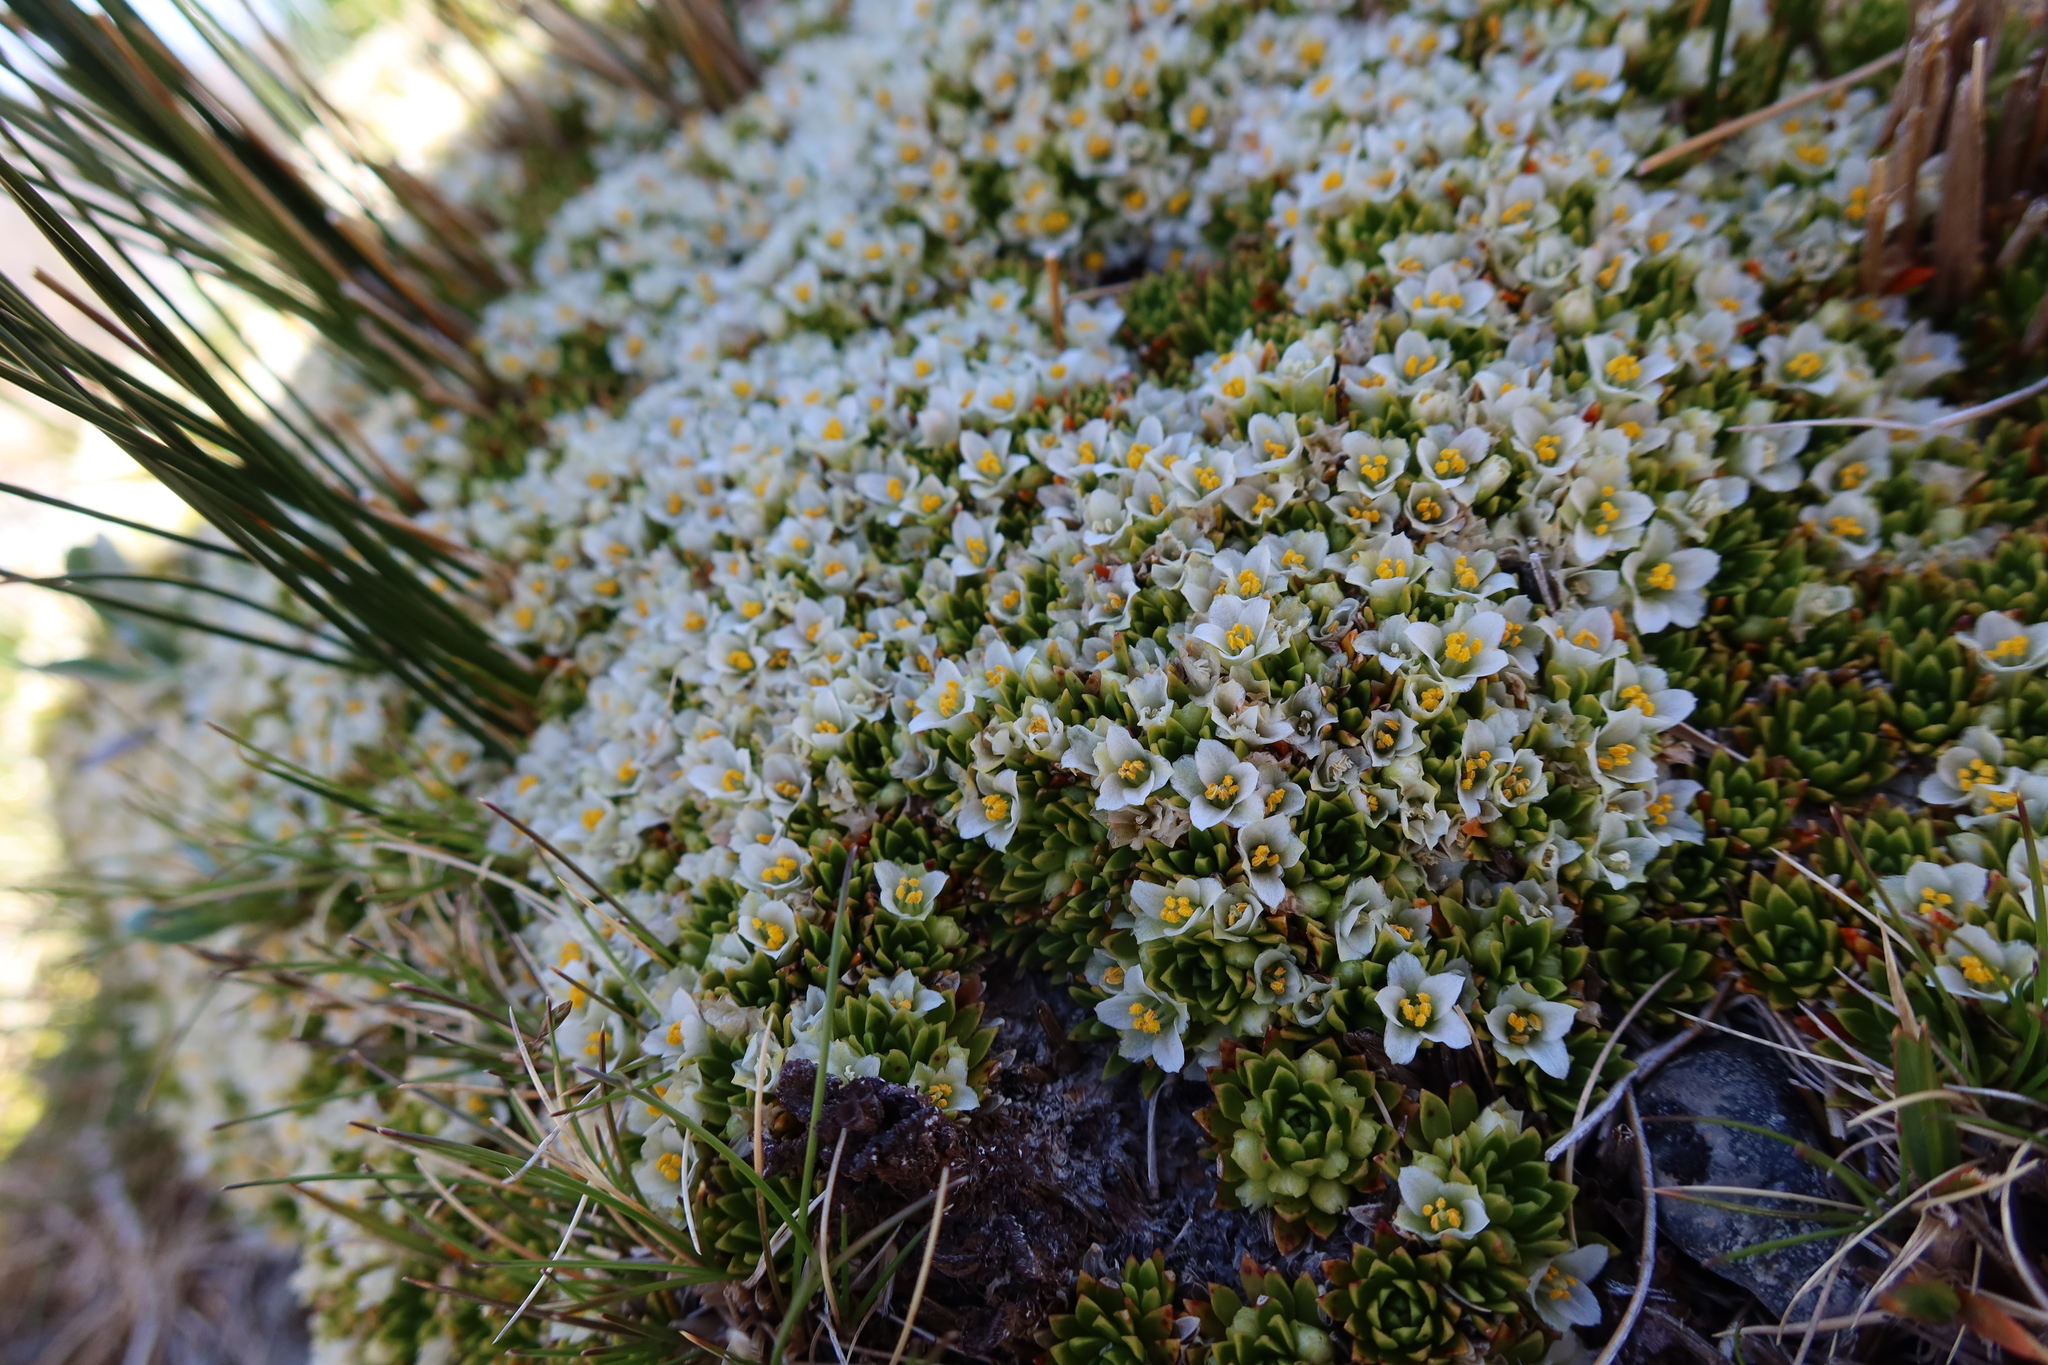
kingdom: Plantae
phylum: Tracheophyta
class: Magnoliopsida
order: Caryophyllales
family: Montiaceae
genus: Hectorella
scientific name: Hectorella caespitosa
